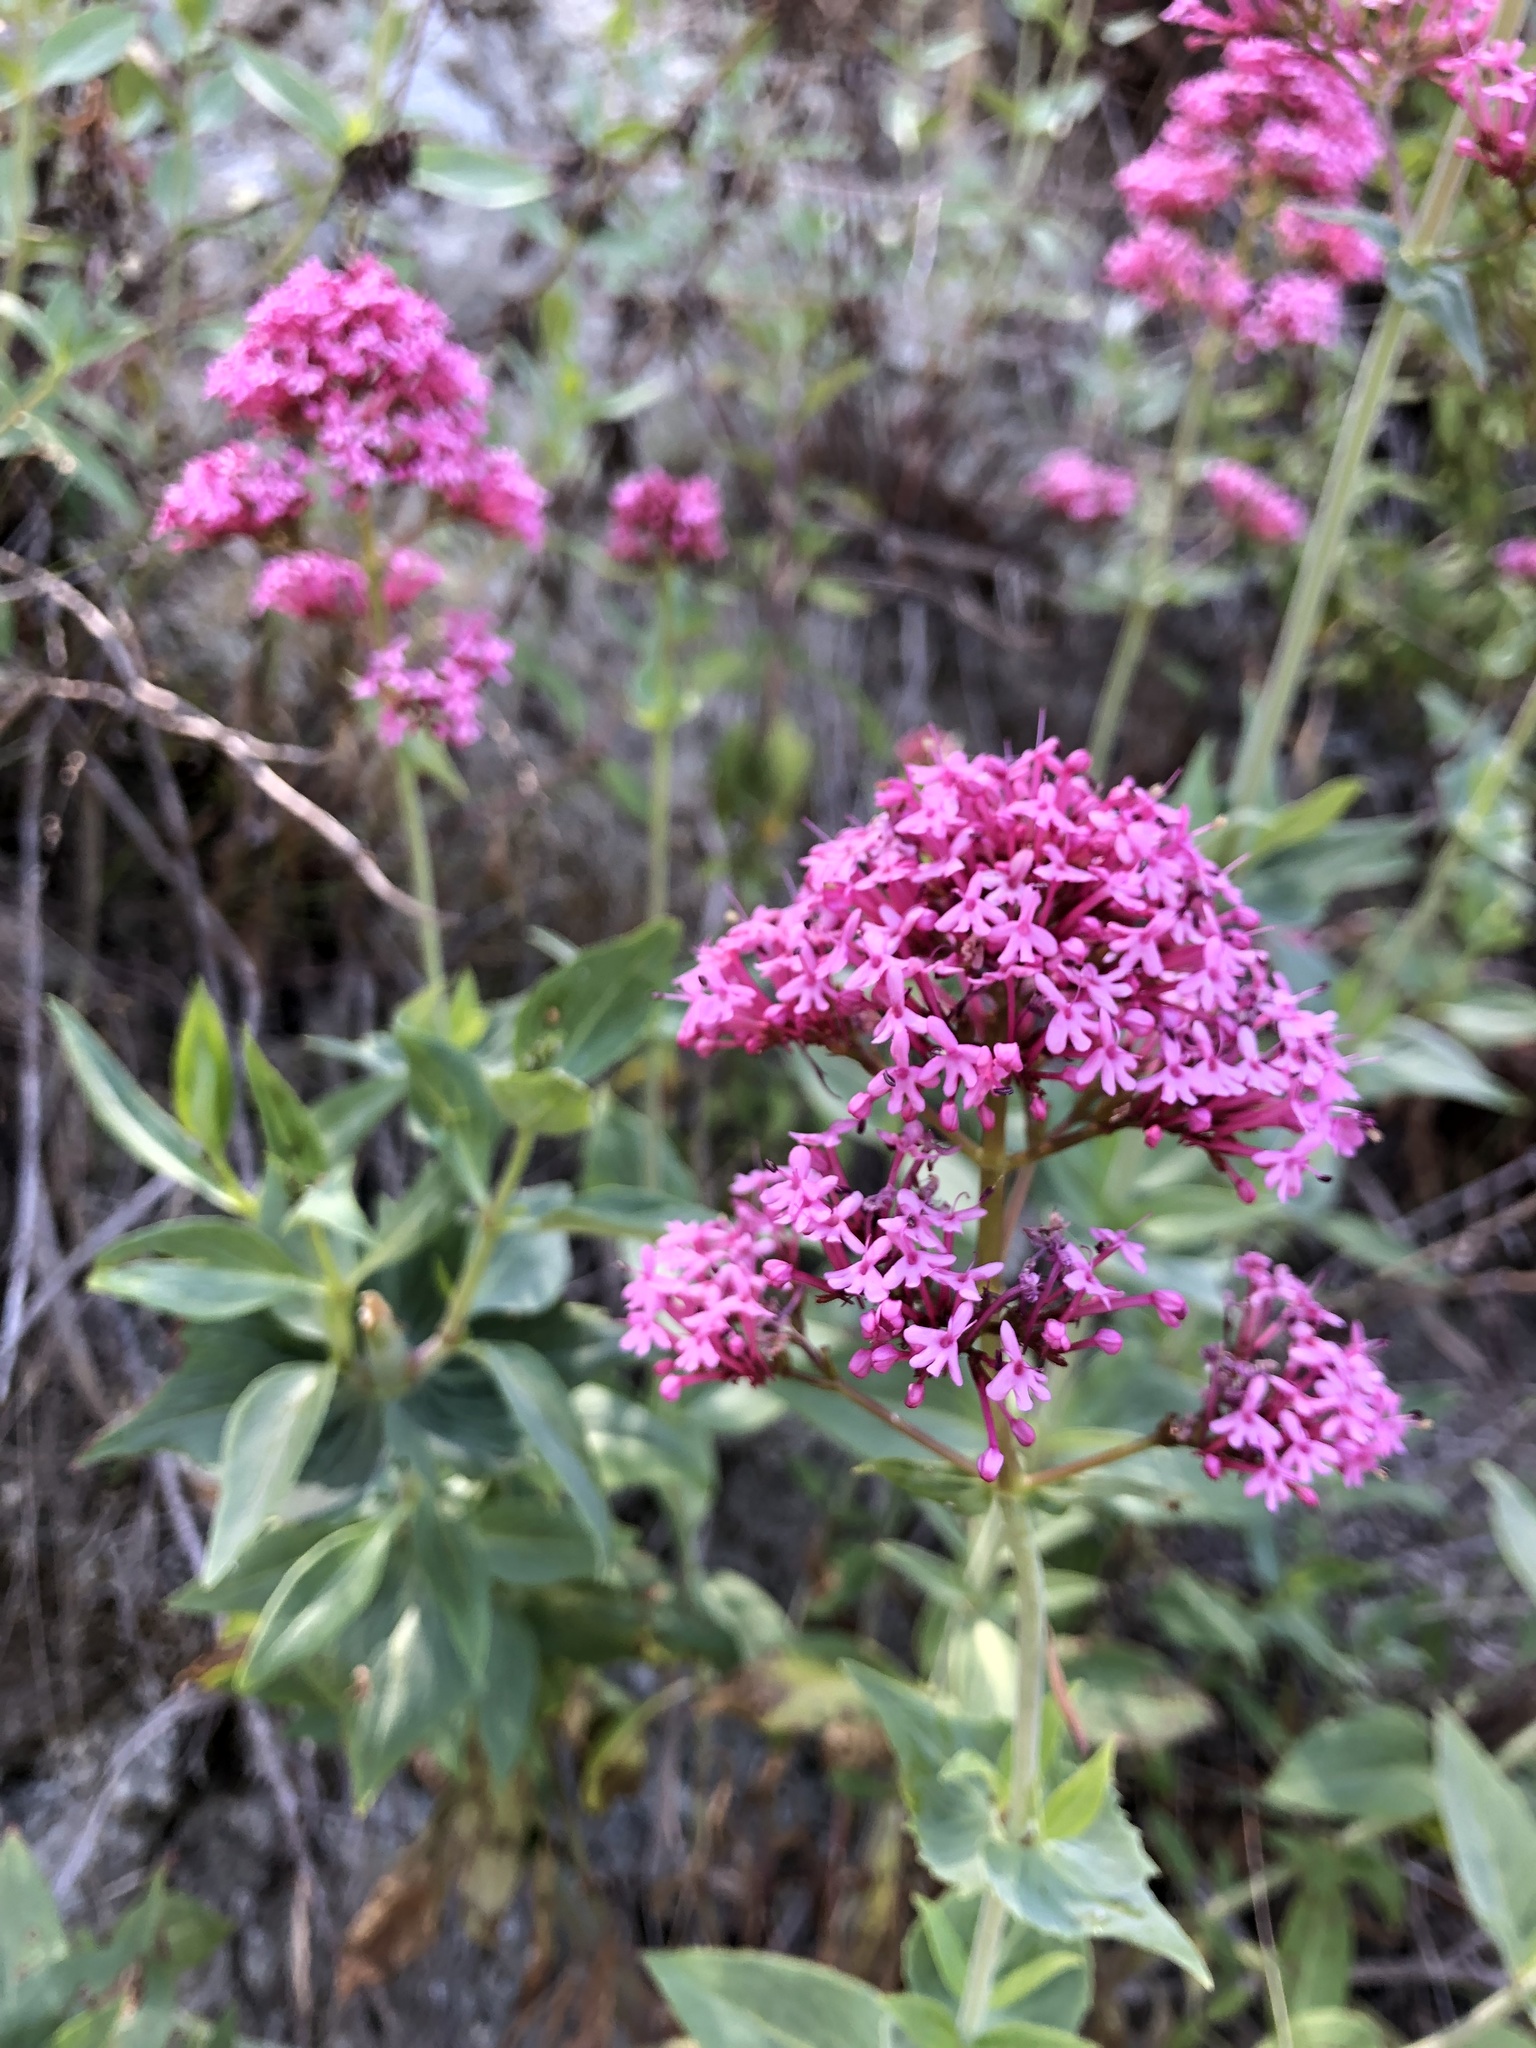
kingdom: Plantae
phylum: Tracheophyta
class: Magnoliopsida
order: Dipsacales
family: Caprifoliaceae
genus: Centranthus
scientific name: Centranthus ruber
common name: Red valerian
